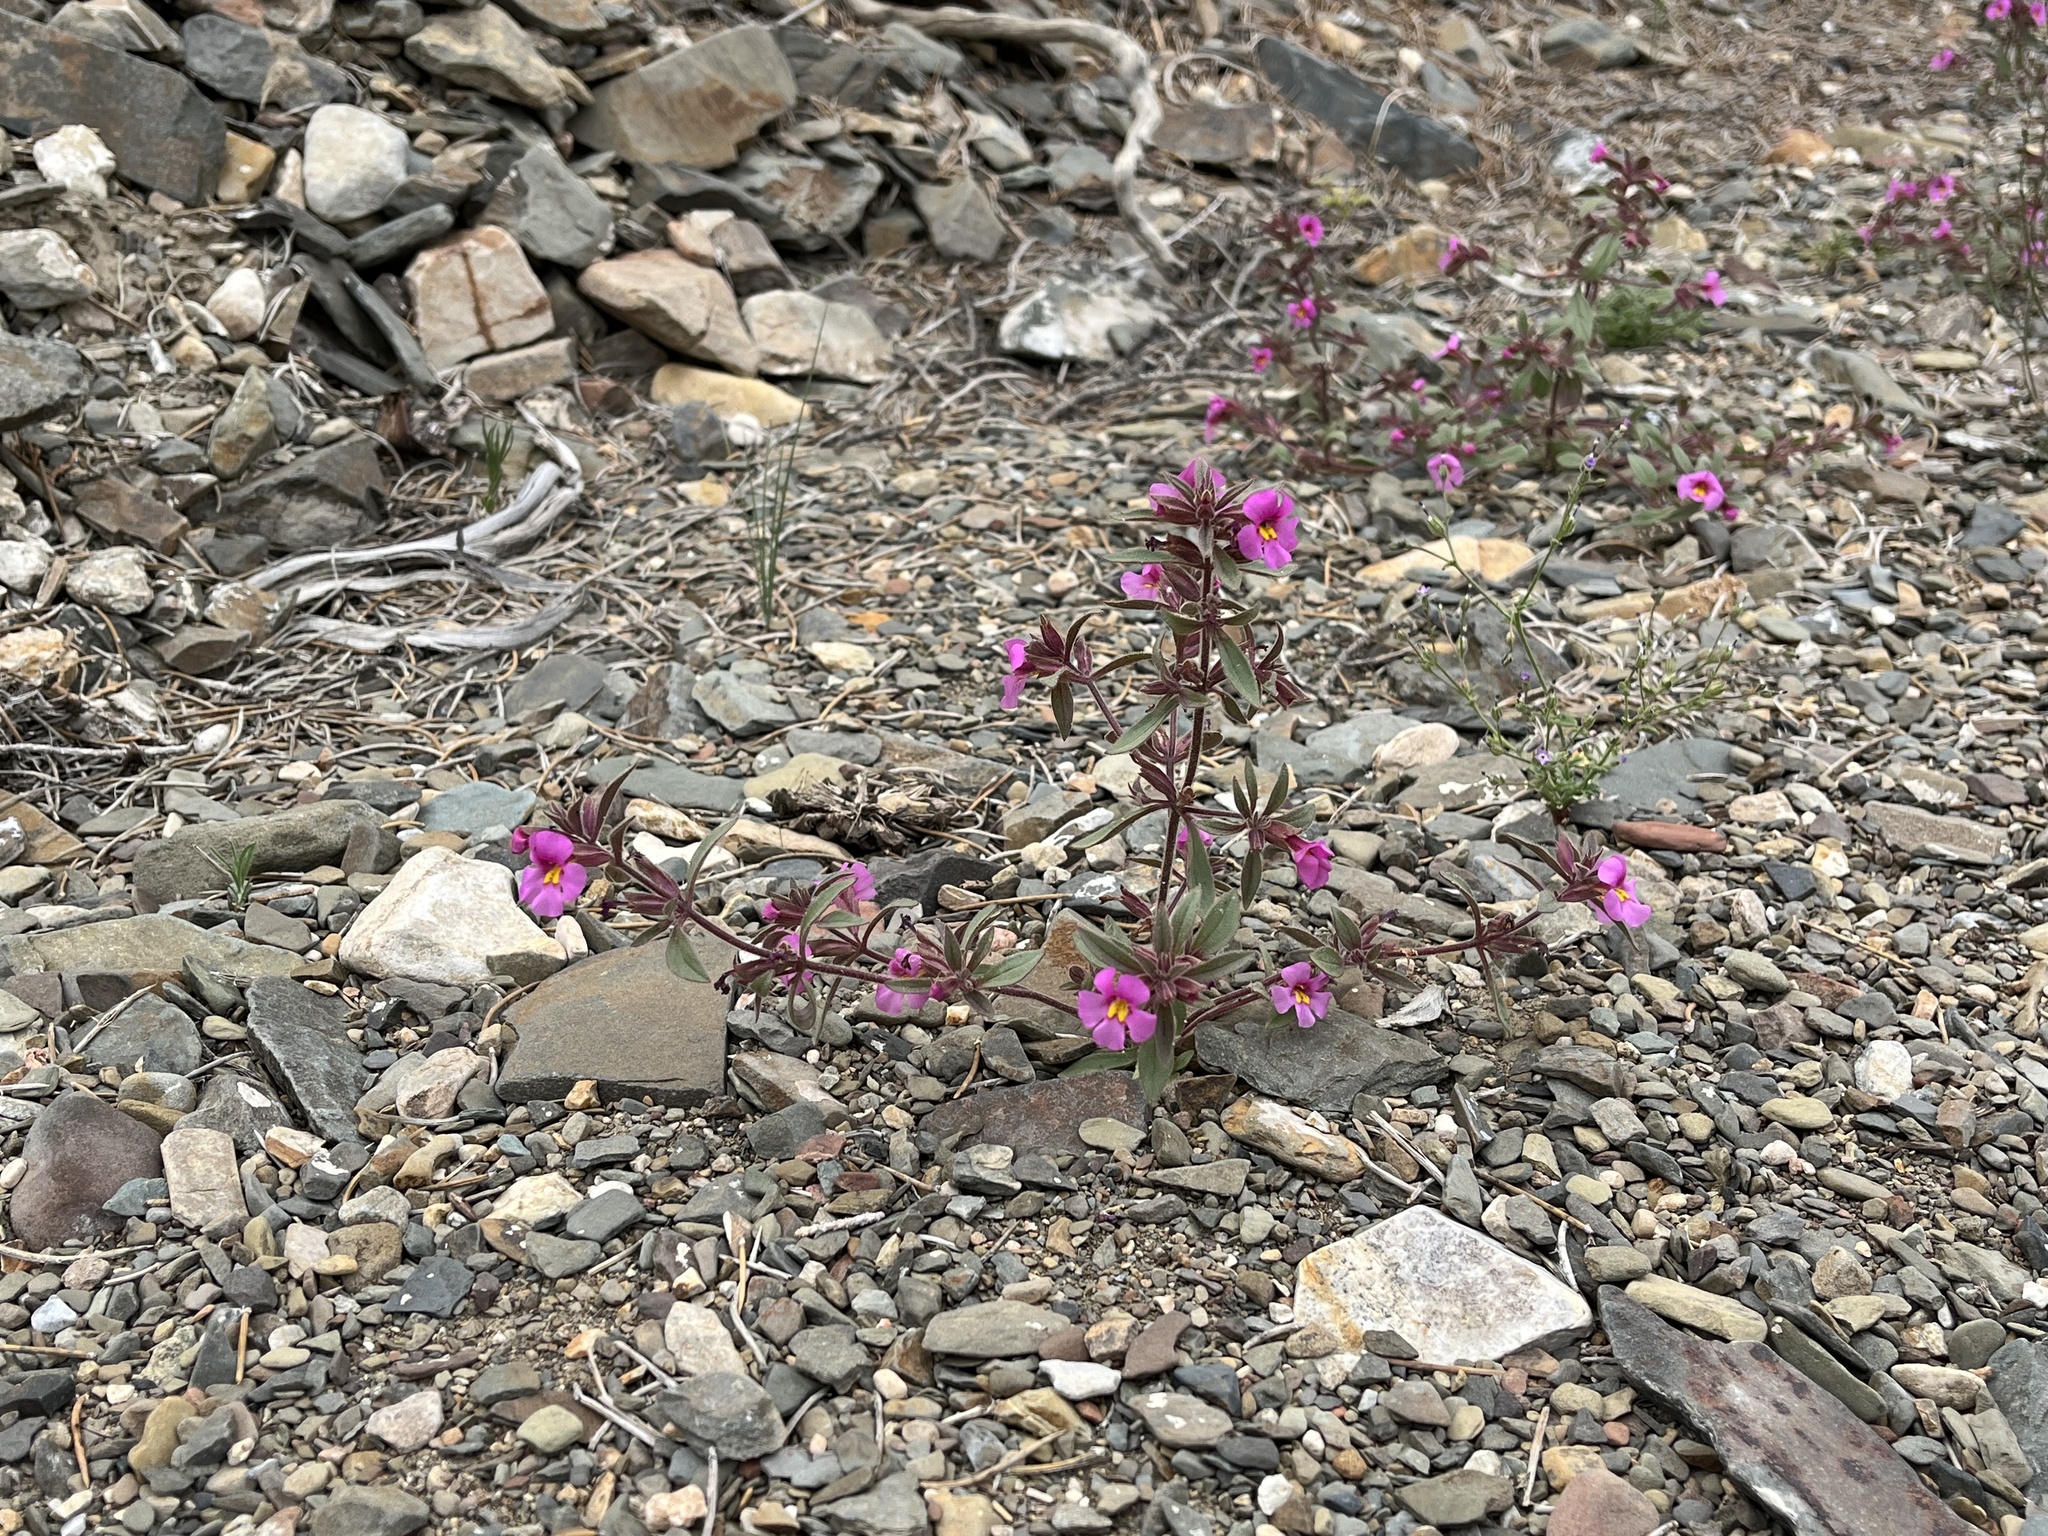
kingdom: Plantae
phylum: Tracheophyta
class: Magnoliopsida
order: Lamiales
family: Phrymaceae
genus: Diplacus
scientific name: Diplacus parryi
